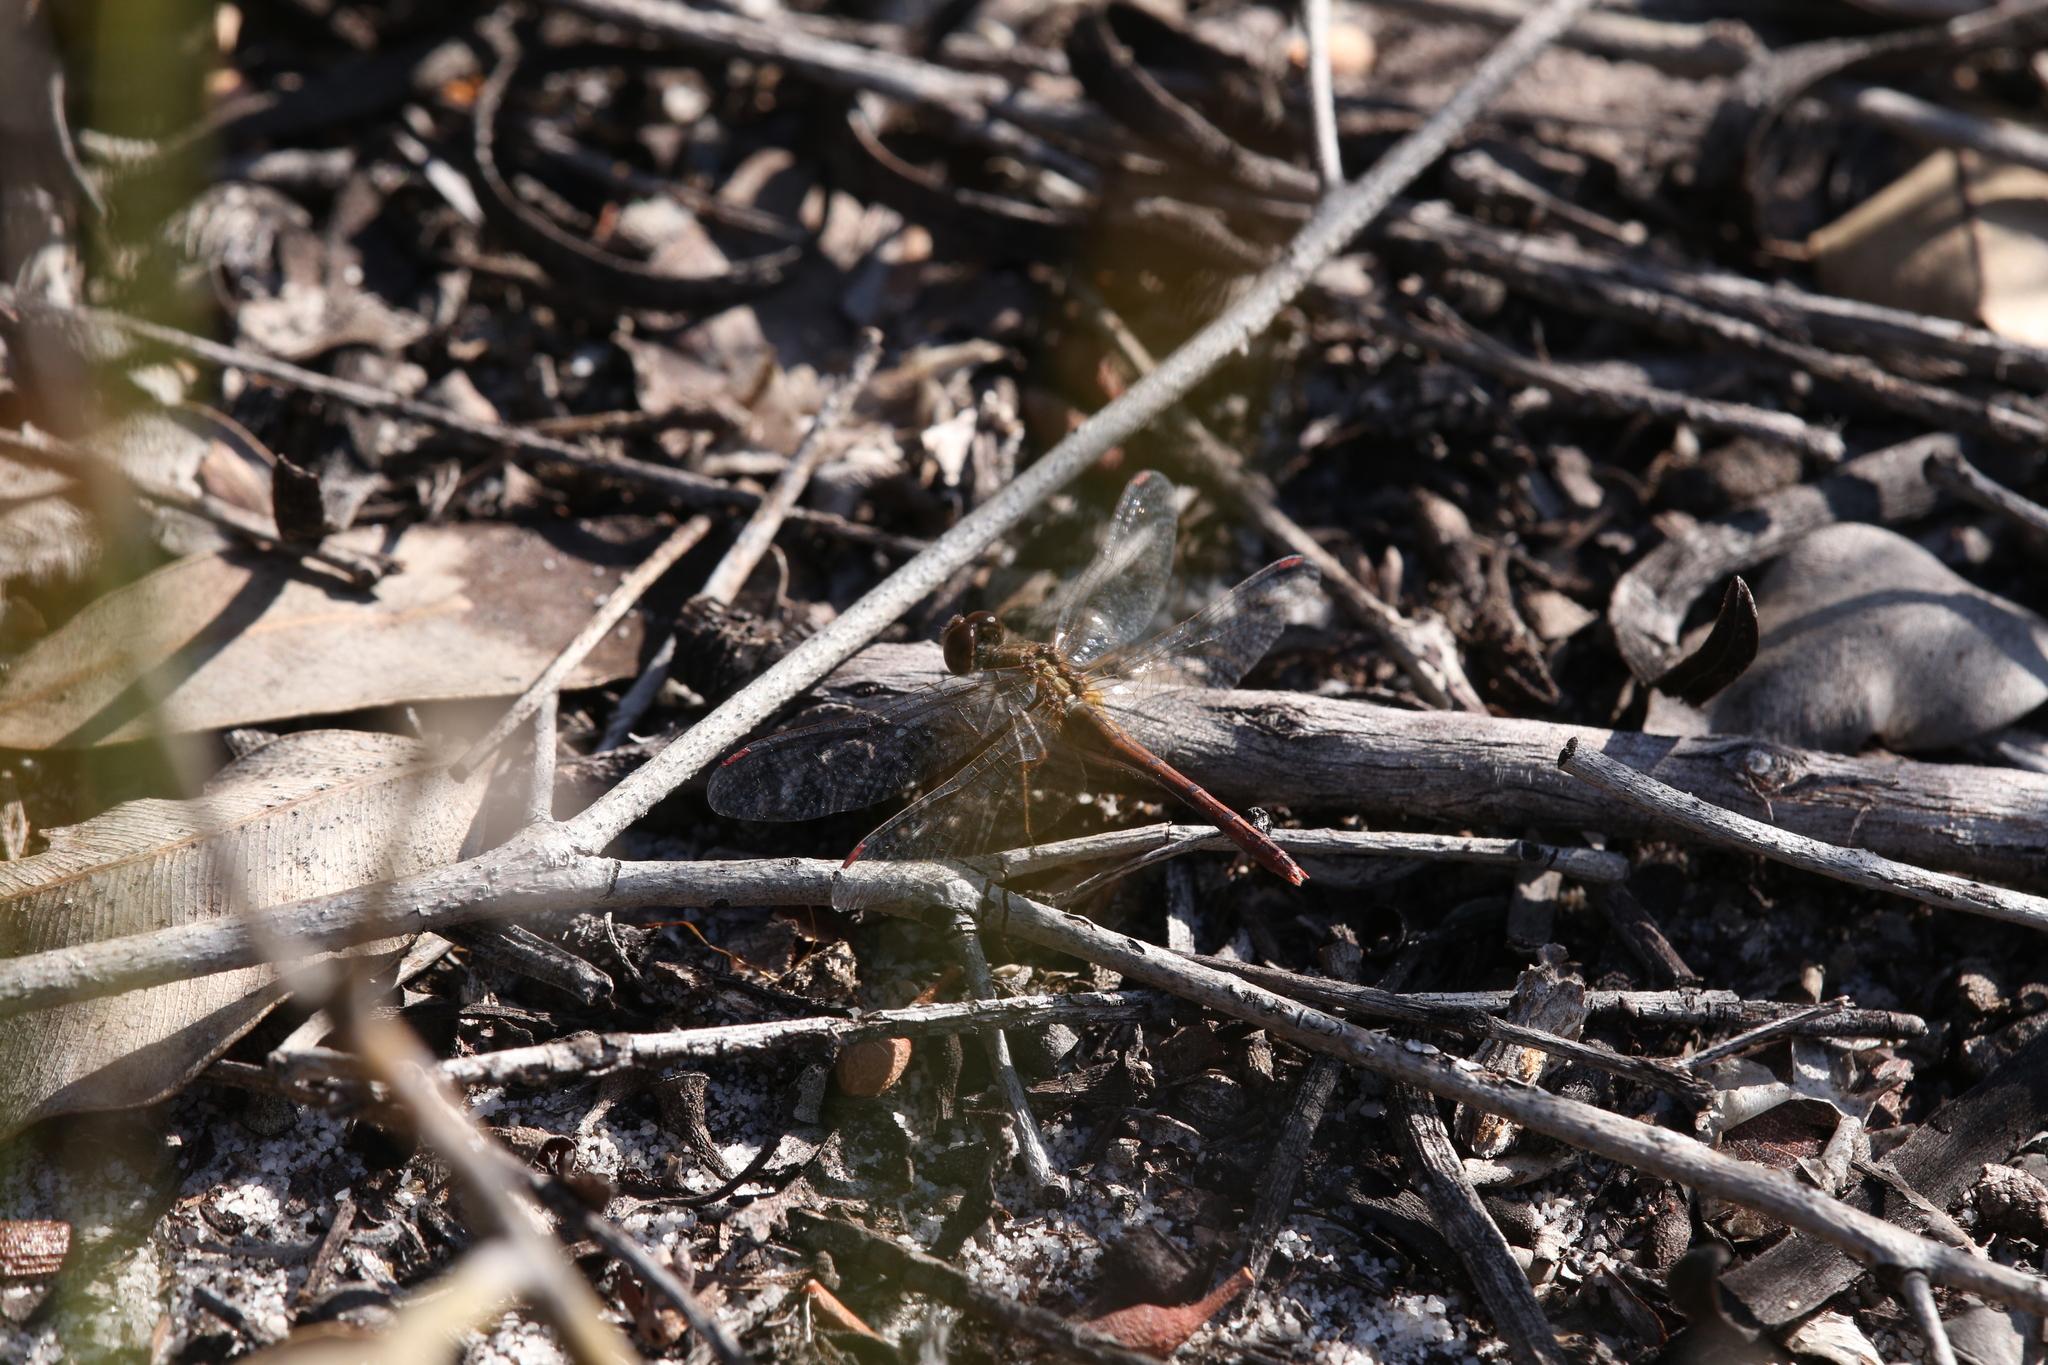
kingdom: Animalia
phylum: Arthropoda
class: Insecta
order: Odonata
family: Libellulidae
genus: Diplacodes
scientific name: Diplacodes bipunctata
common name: Red percher dragonfly
